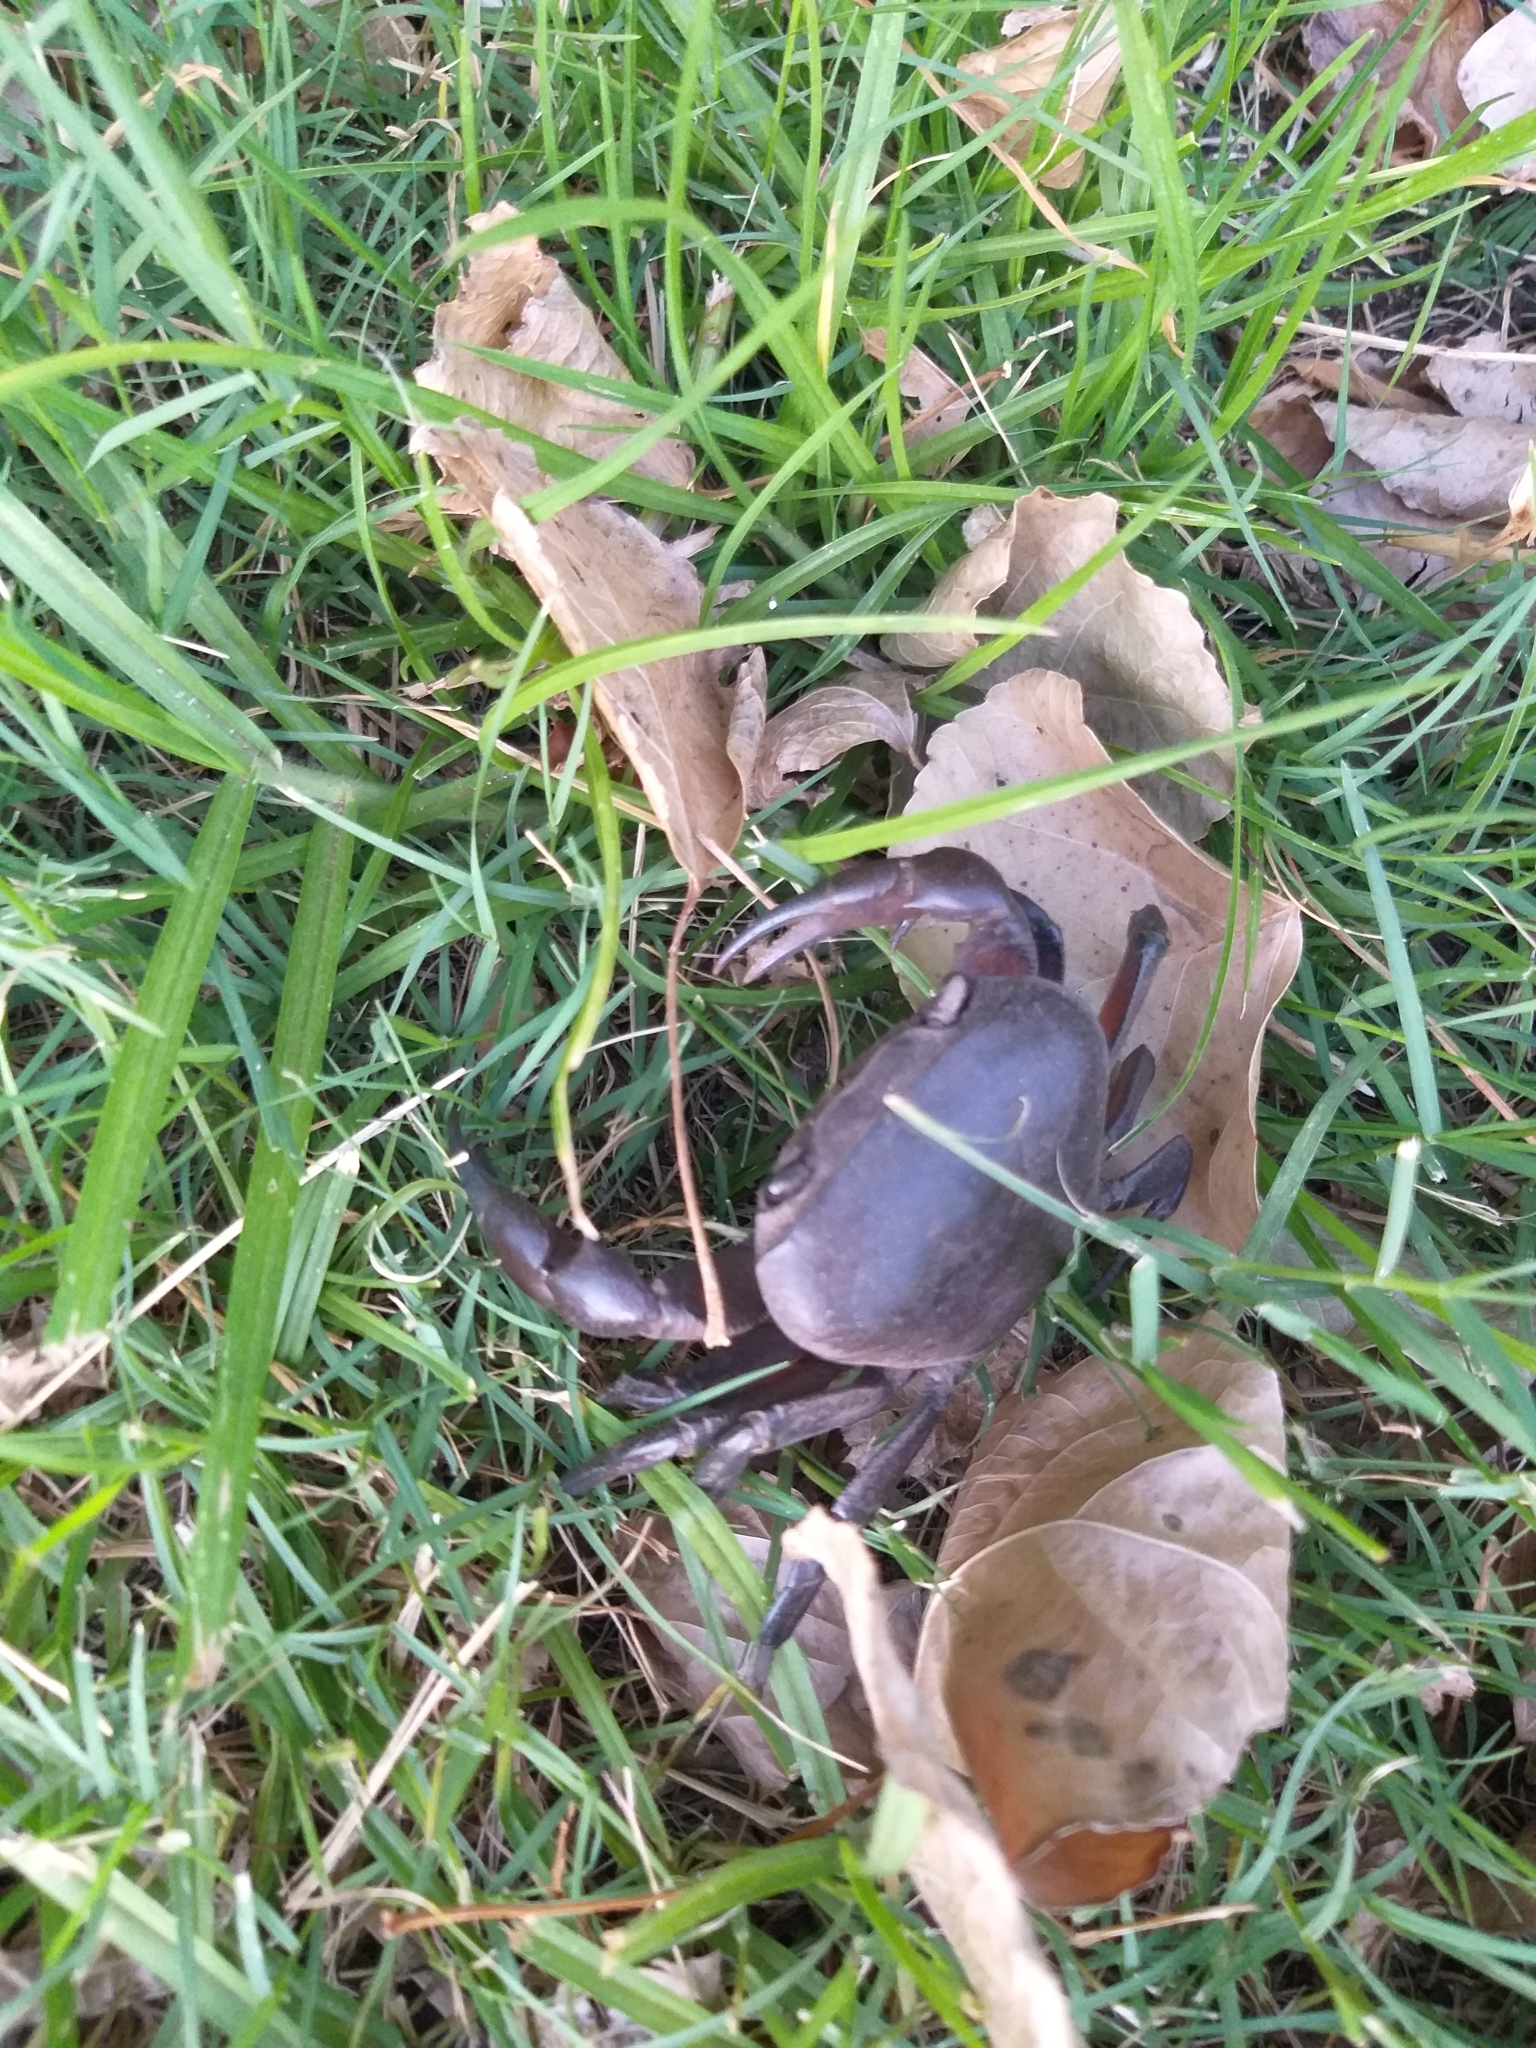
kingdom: Animalia
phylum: Arthropoda
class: Malacostraca
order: Decapoda
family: Potamonautidae
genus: Potamonautes
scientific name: Potamonautes perlatus
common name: Cape river crab
